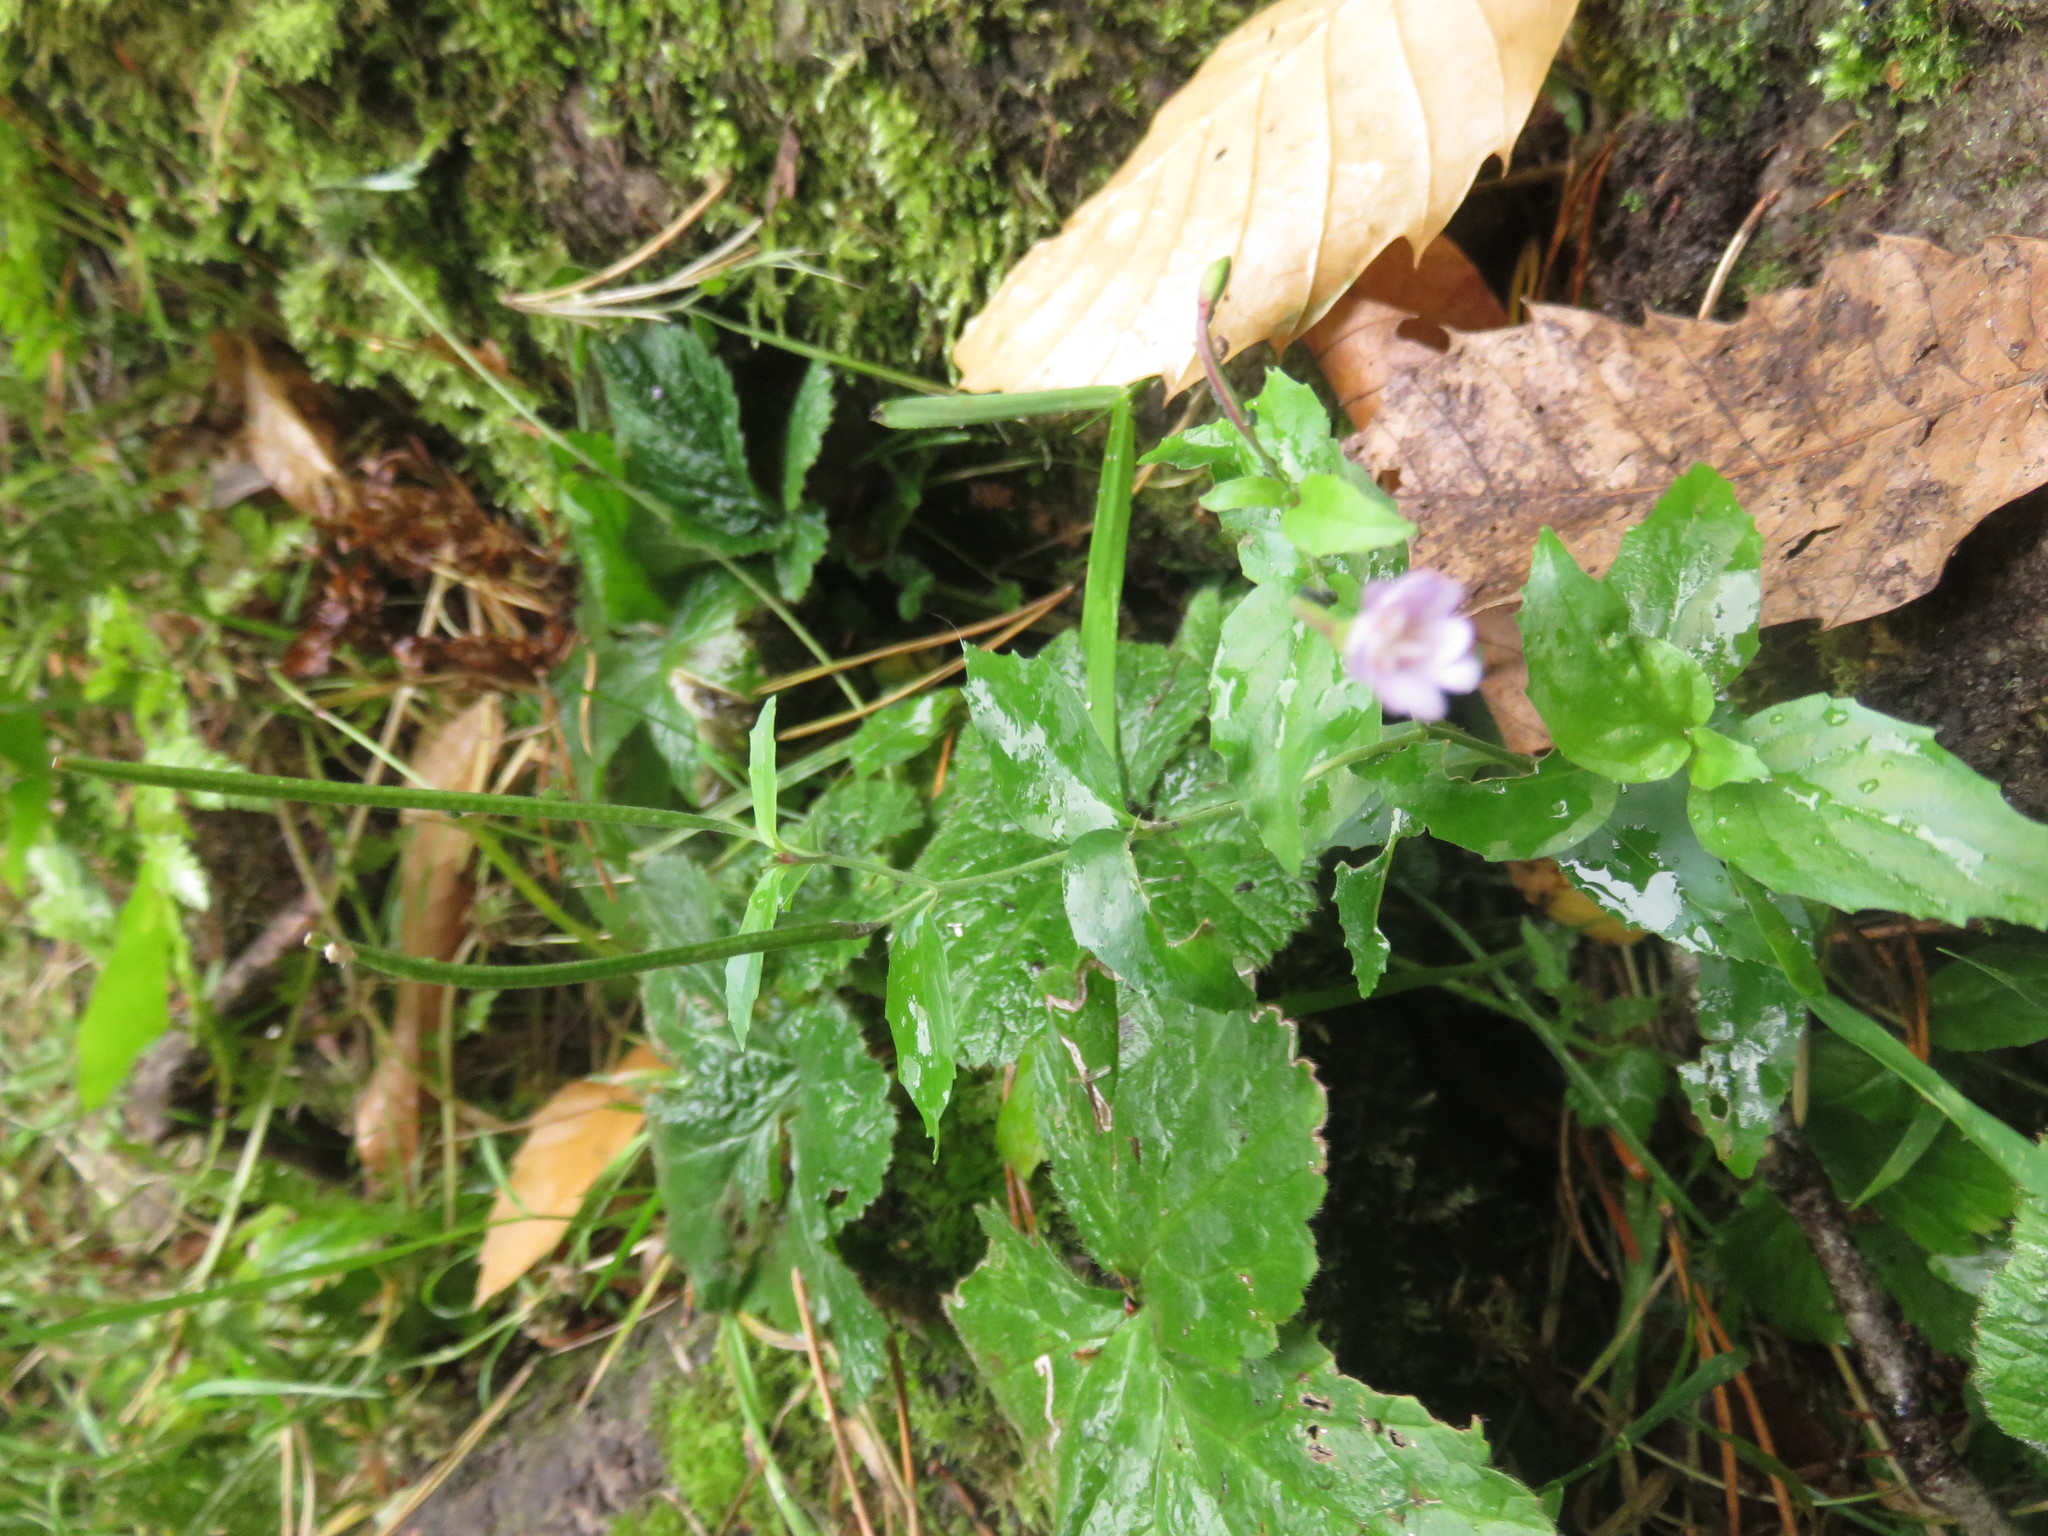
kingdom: Plantae
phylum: Tracheophyta
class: Magnoliopsida
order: Myrtales
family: Onagraceae
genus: Epilobium
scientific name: Epilobium montanum
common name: Broad-leaved willowherb
